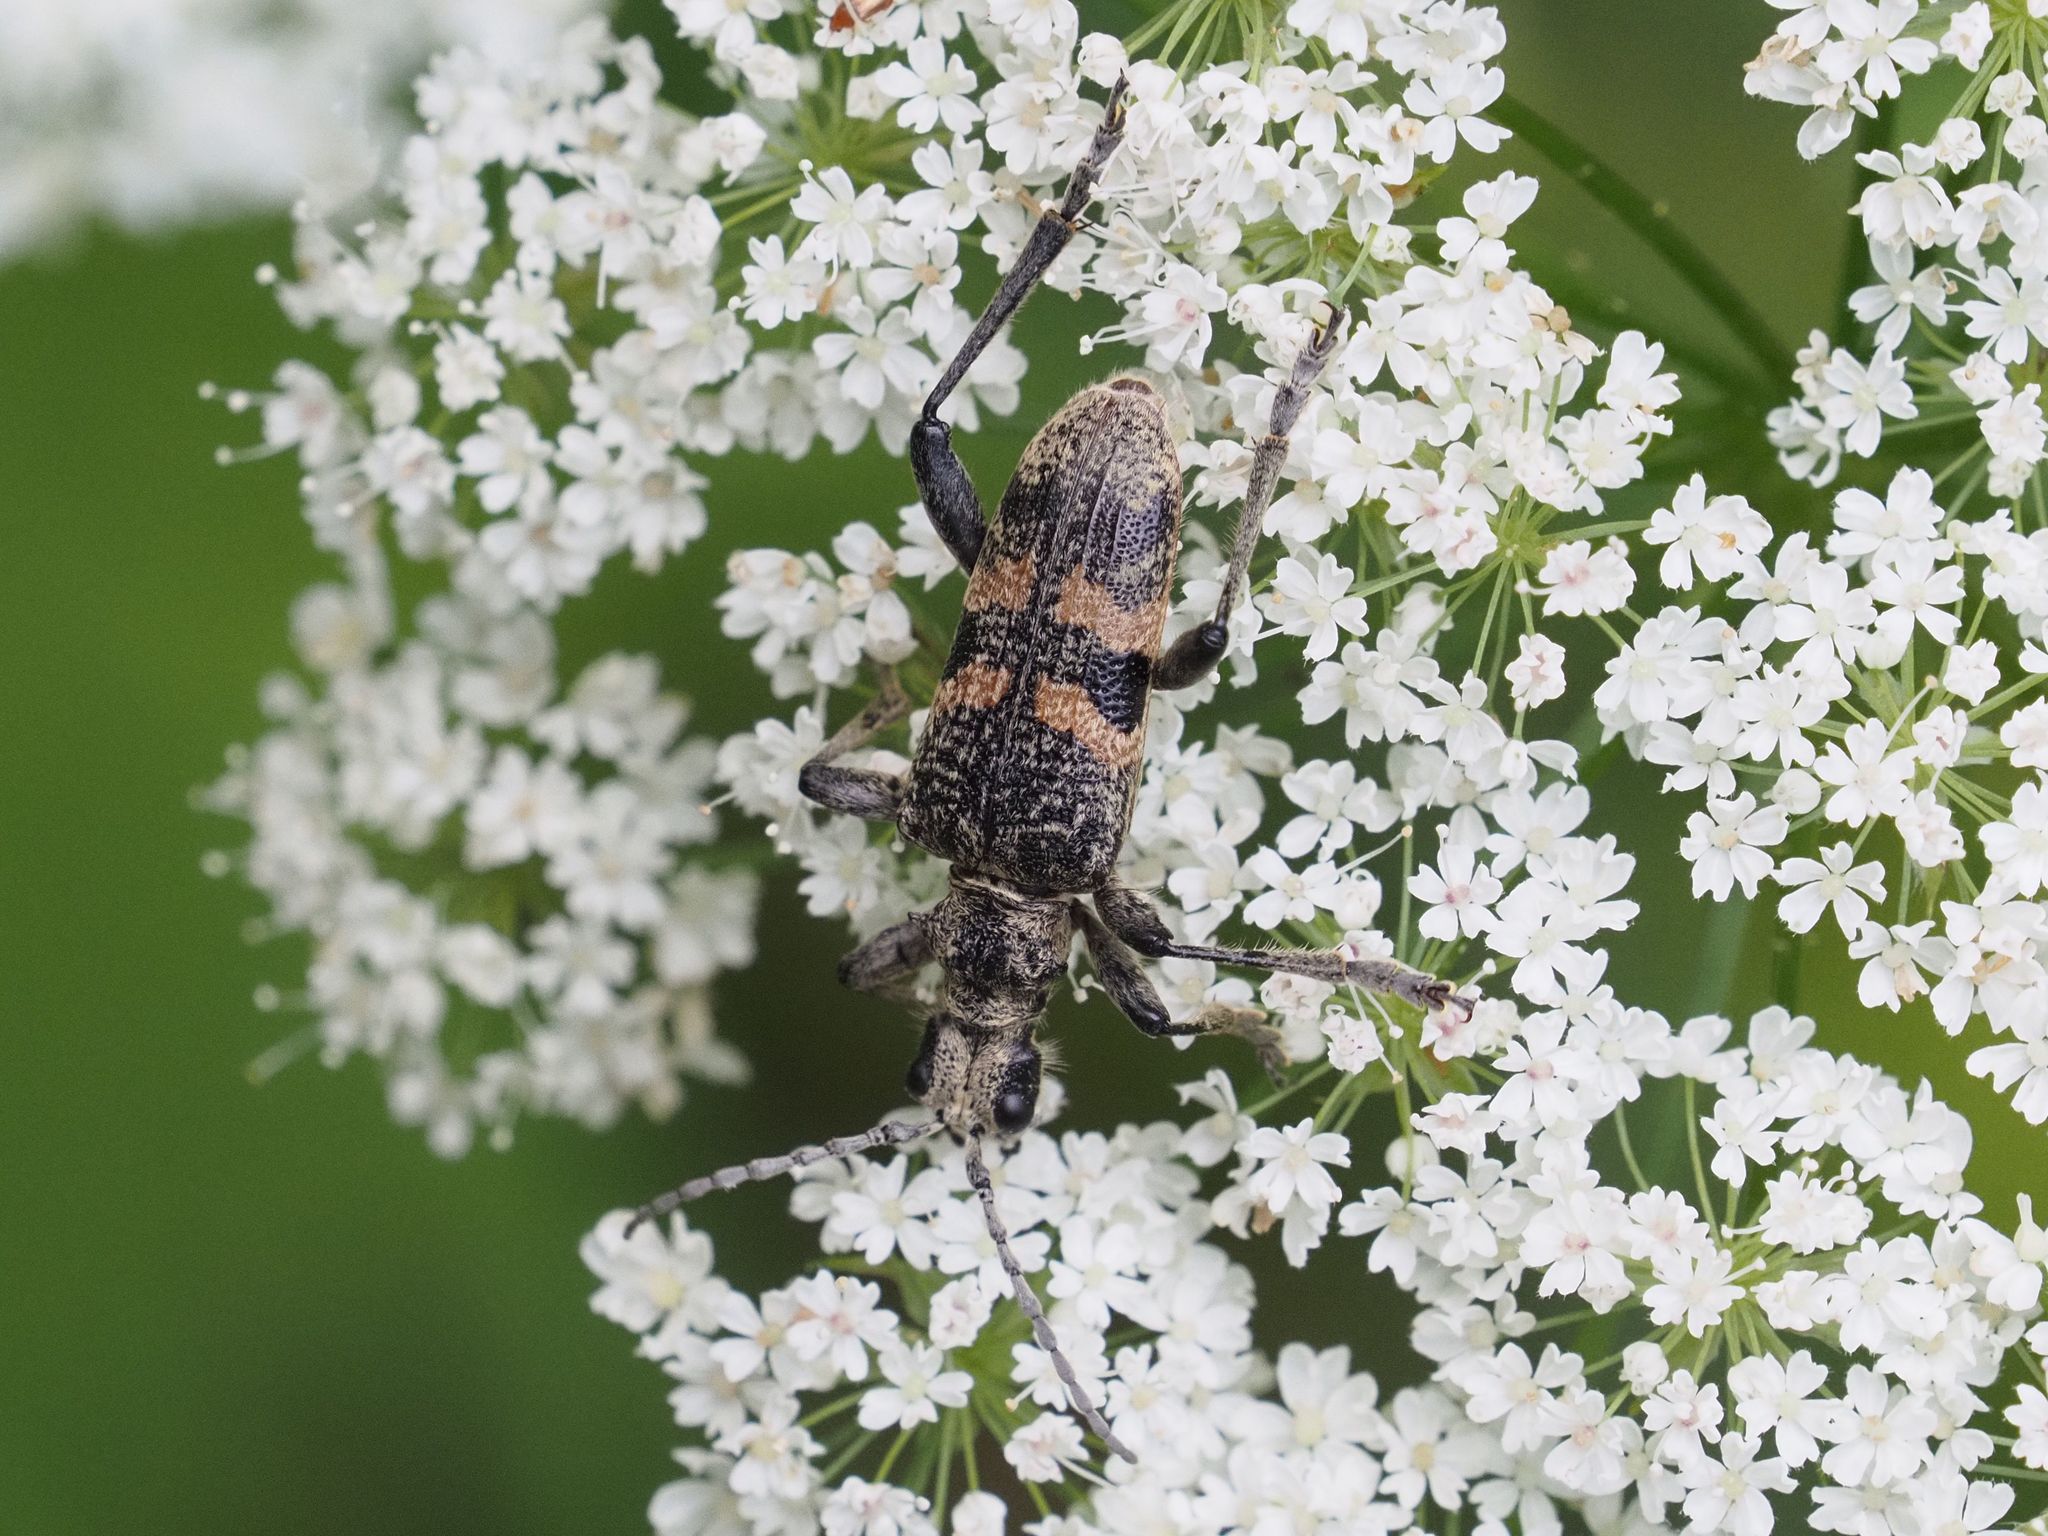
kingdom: Animalia
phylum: Arthropoda
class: Insecta
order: Coleoptera
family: Cerambycidae
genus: Rhagium
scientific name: Rhagium mordax
